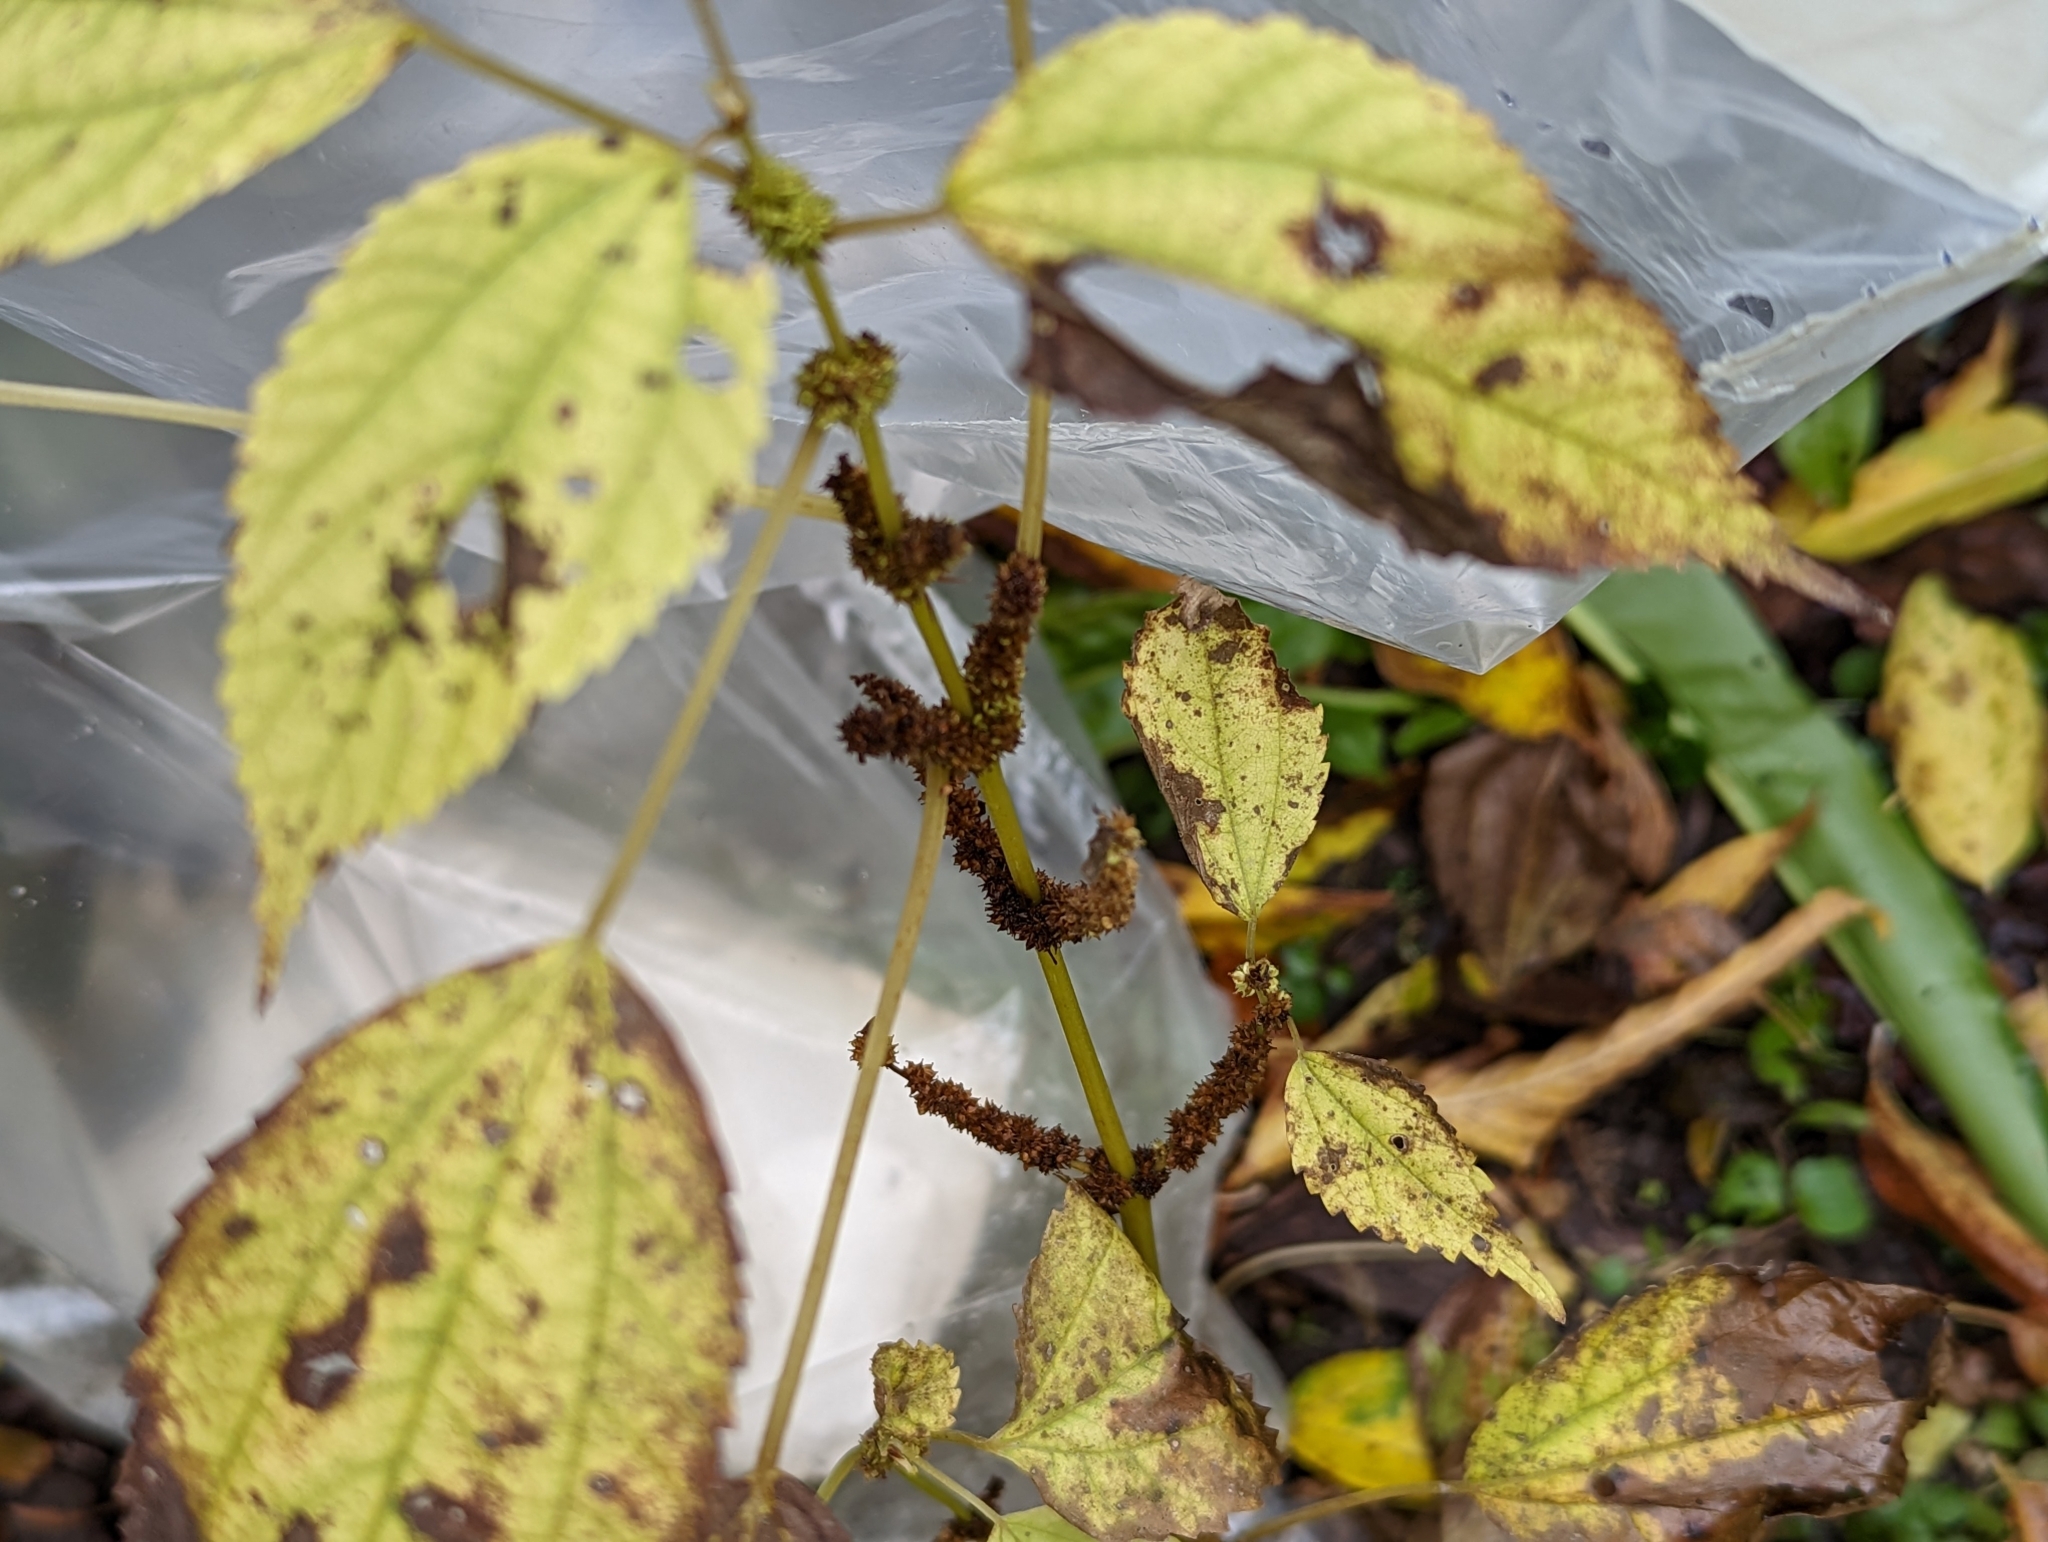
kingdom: Plantae
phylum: Tracheophyta
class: Magnoliopsida
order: Rosales
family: Urticaceae
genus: Boehmeria
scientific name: Boehmeria cylindrica
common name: Bog-hemp
